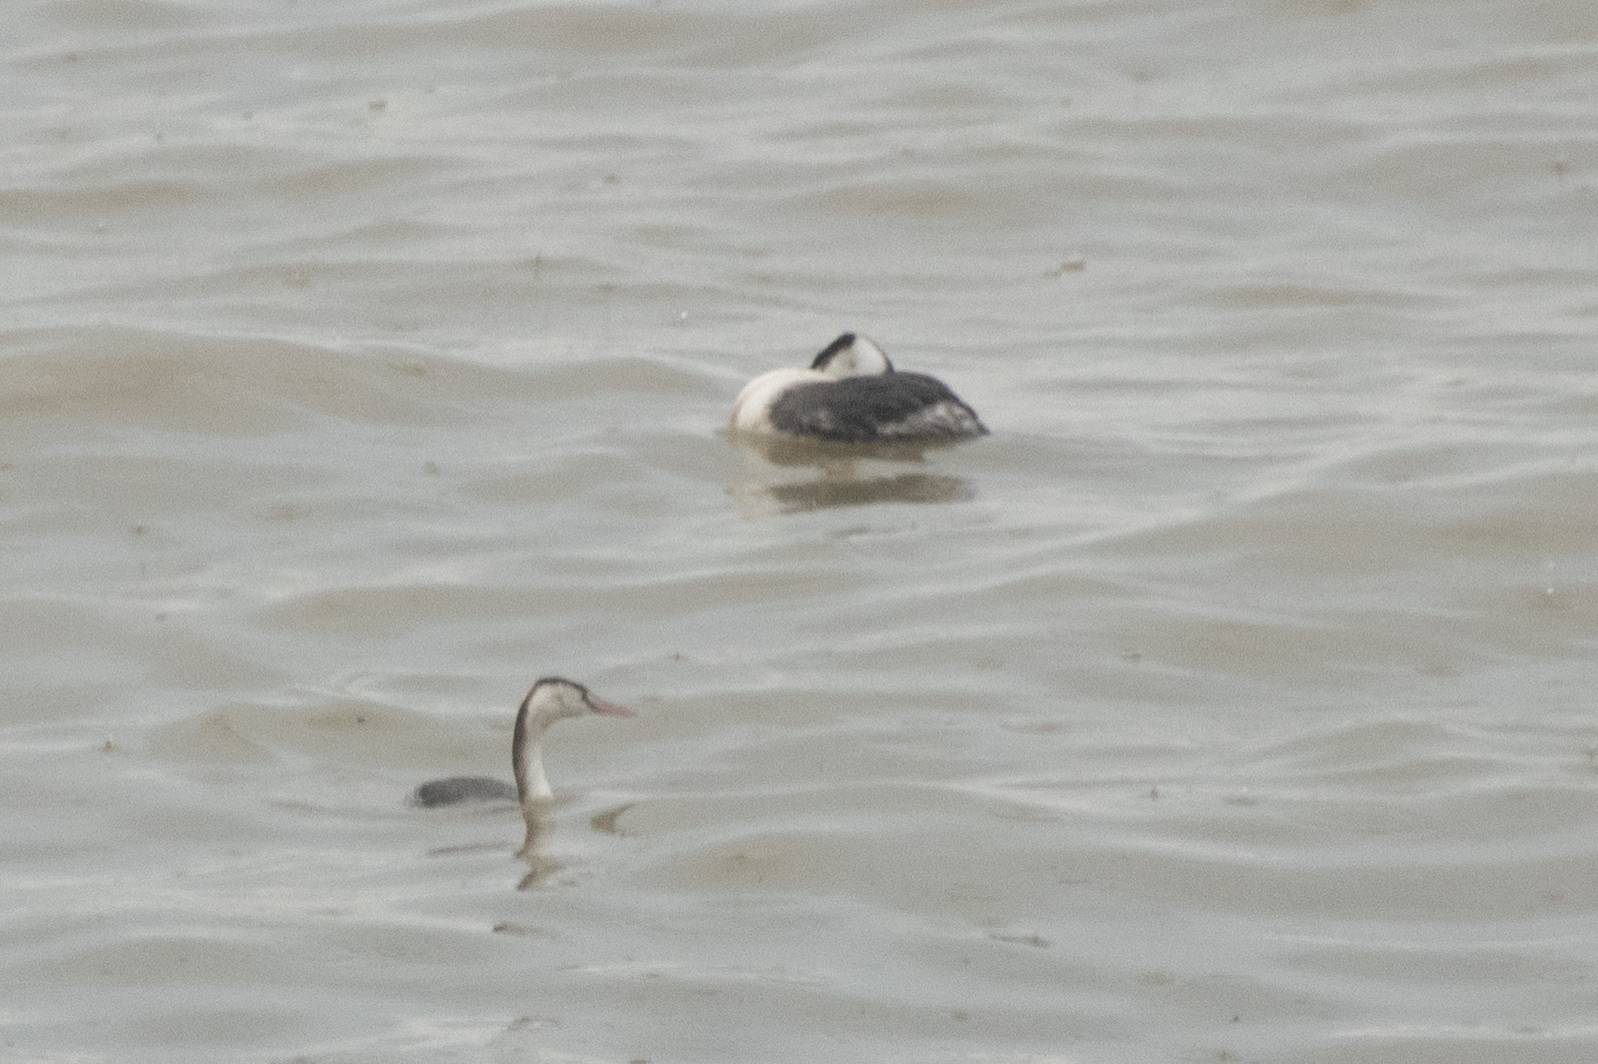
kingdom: Animalia
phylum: Chordata
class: Aves
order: Podicipediformes
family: Podicipedidae
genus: Podiceps
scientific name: Podiceps cristatus
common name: Great crested grebe
